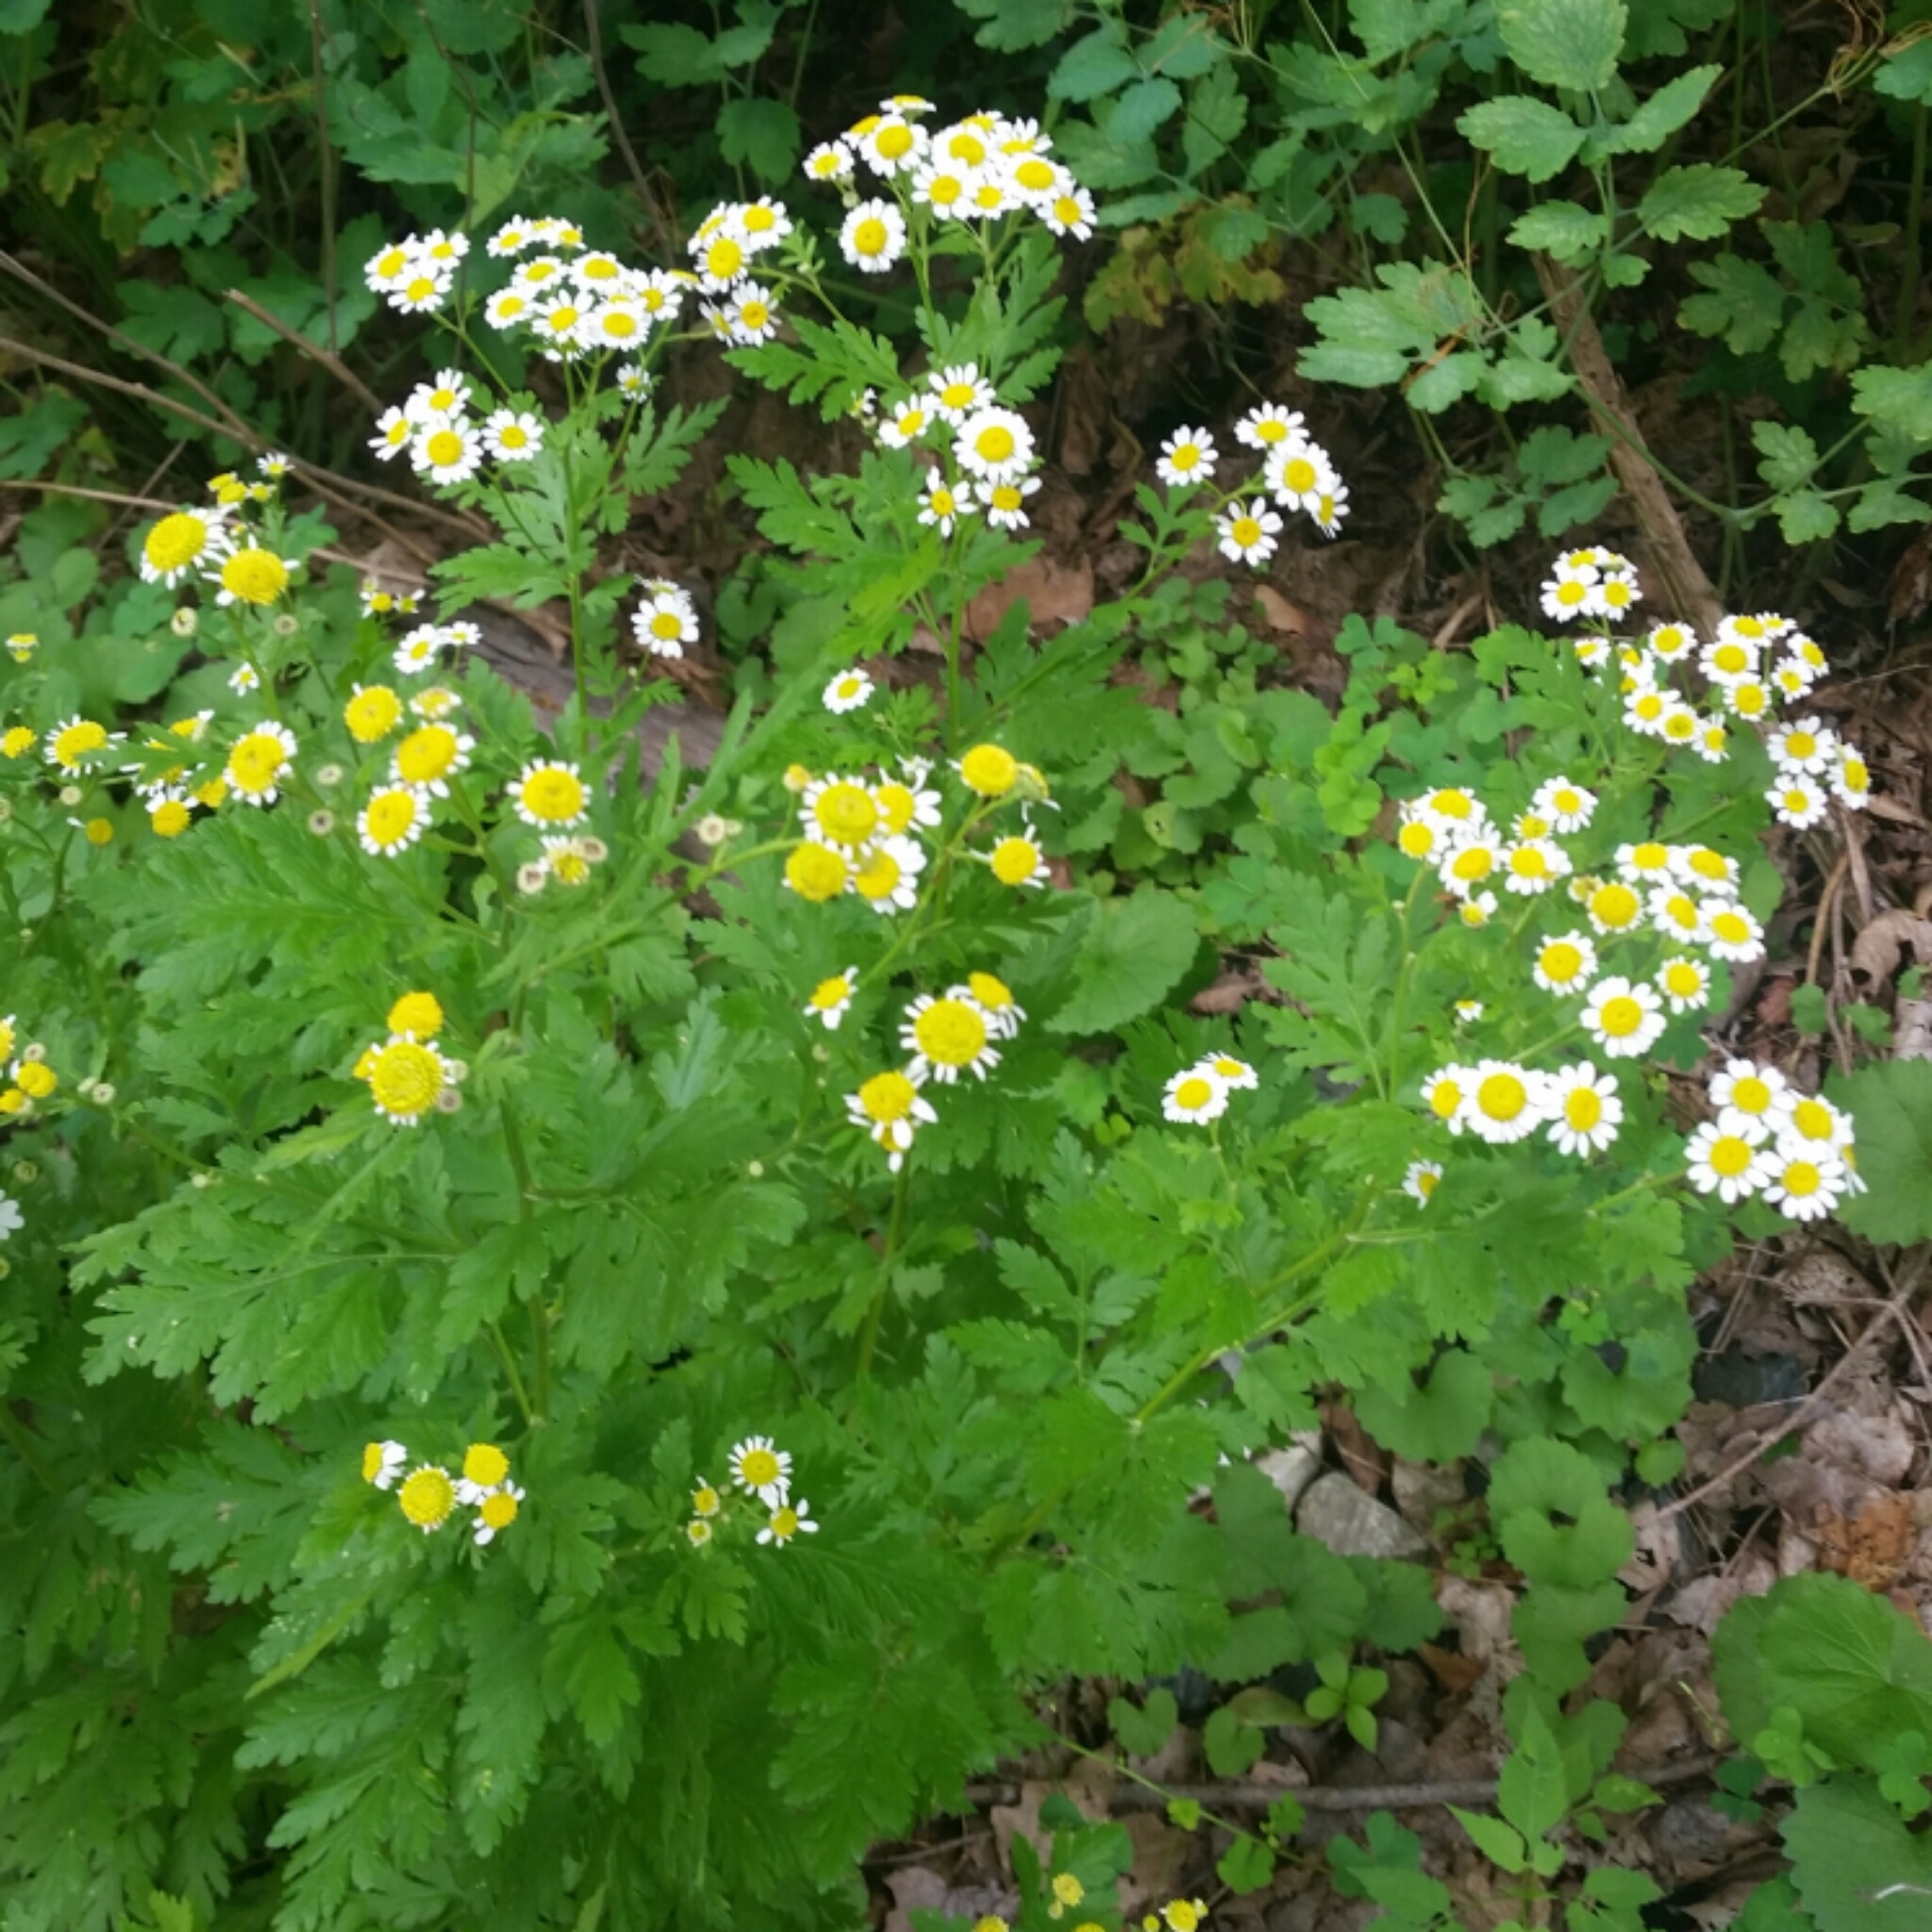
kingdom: Plantae
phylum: Tracheophyta
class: Magnoliopsida
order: Asterales
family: Asteraceae
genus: Tanacetum
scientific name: Tanacetum parthenium
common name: Feverfew
